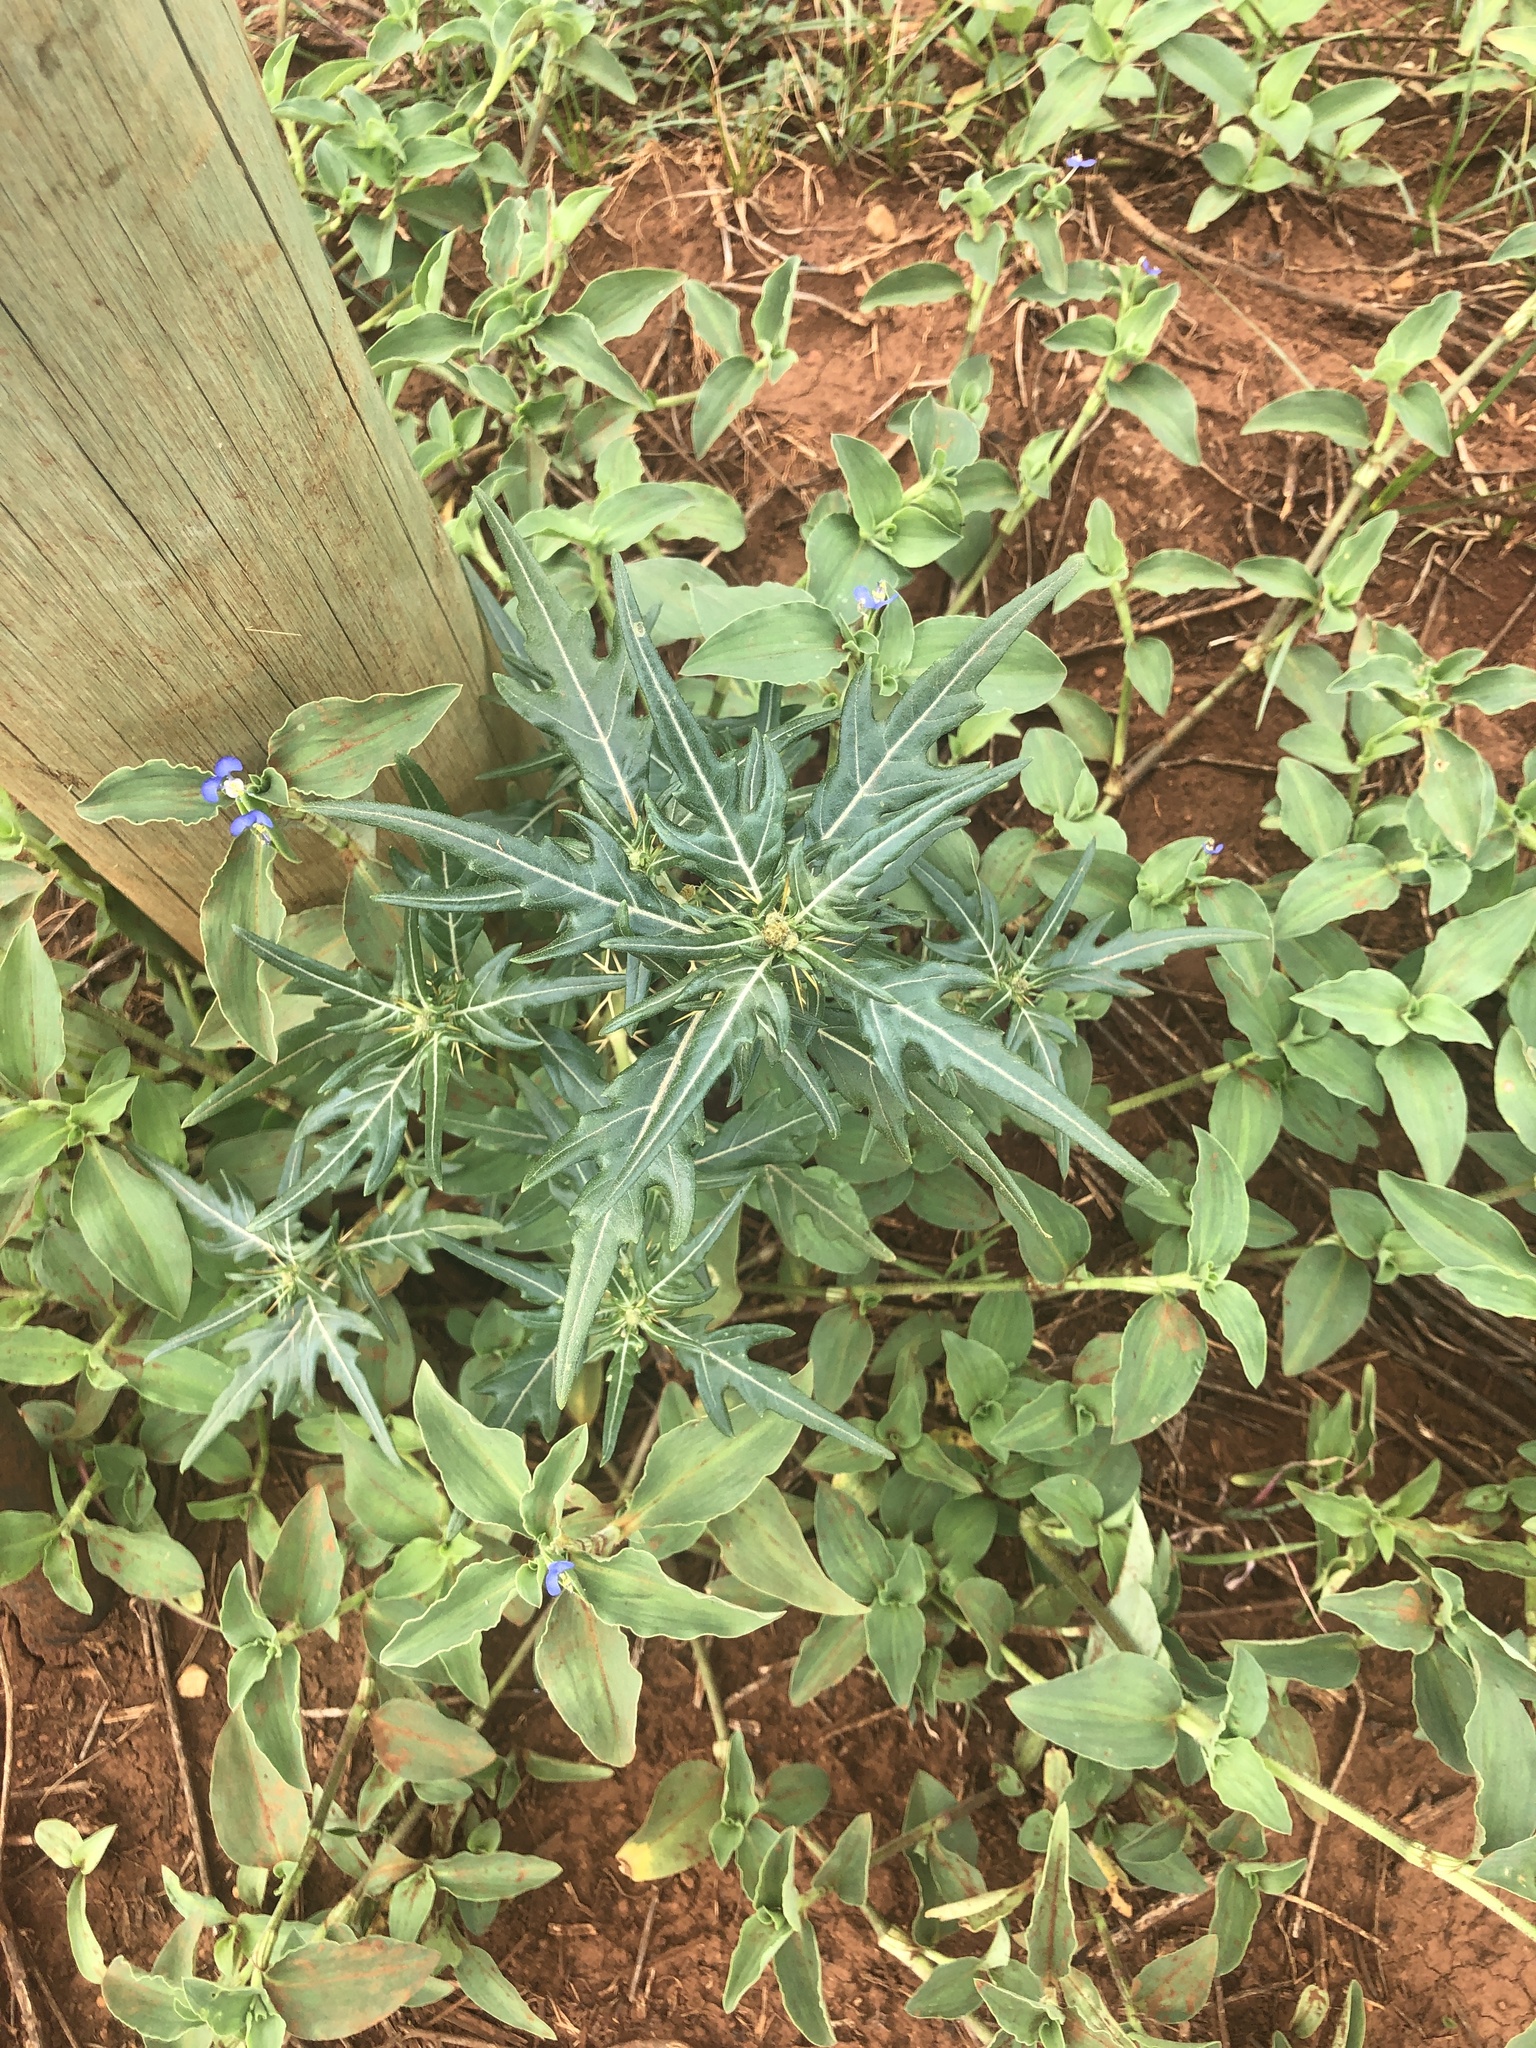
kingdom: Plantae
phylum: Tracheophyta
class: Magnoliopsida
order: Asterales
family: Asteraceae
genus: Xanthium
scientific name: Xanthium spinosum
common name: Spiny cocklebur
